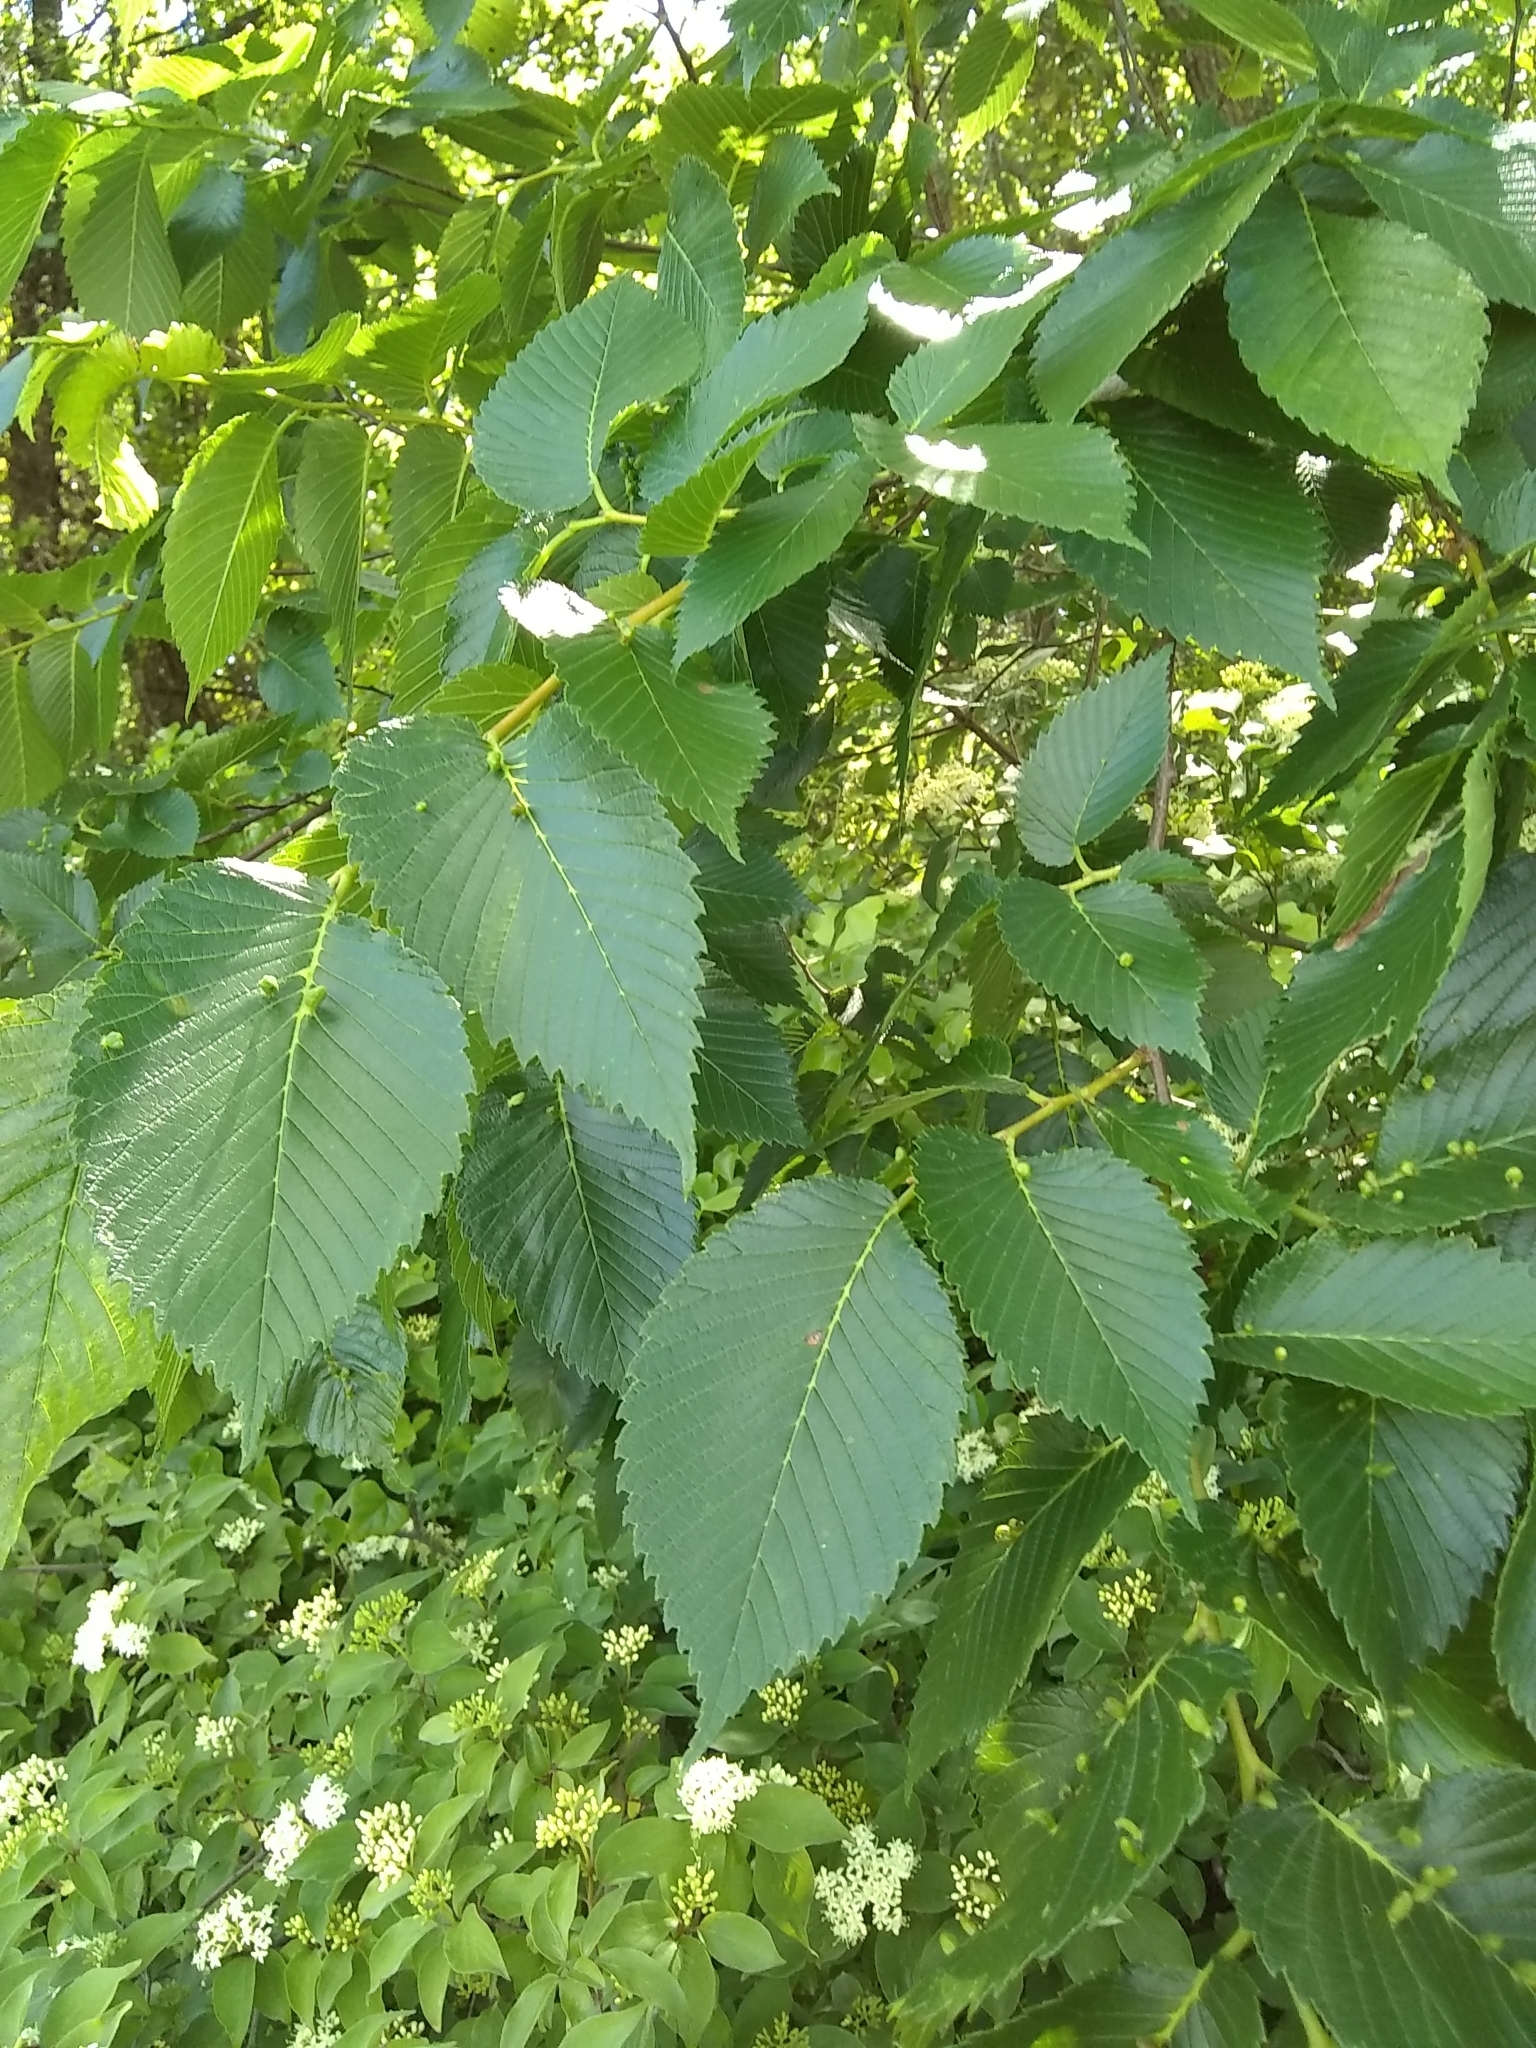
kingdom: Plantae
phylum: Tracheophyta
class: Magnoliopsida
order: Rosales
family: Ulmaceae
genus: Ulmus
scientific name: Ulmus rubra
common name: Slippery elm
